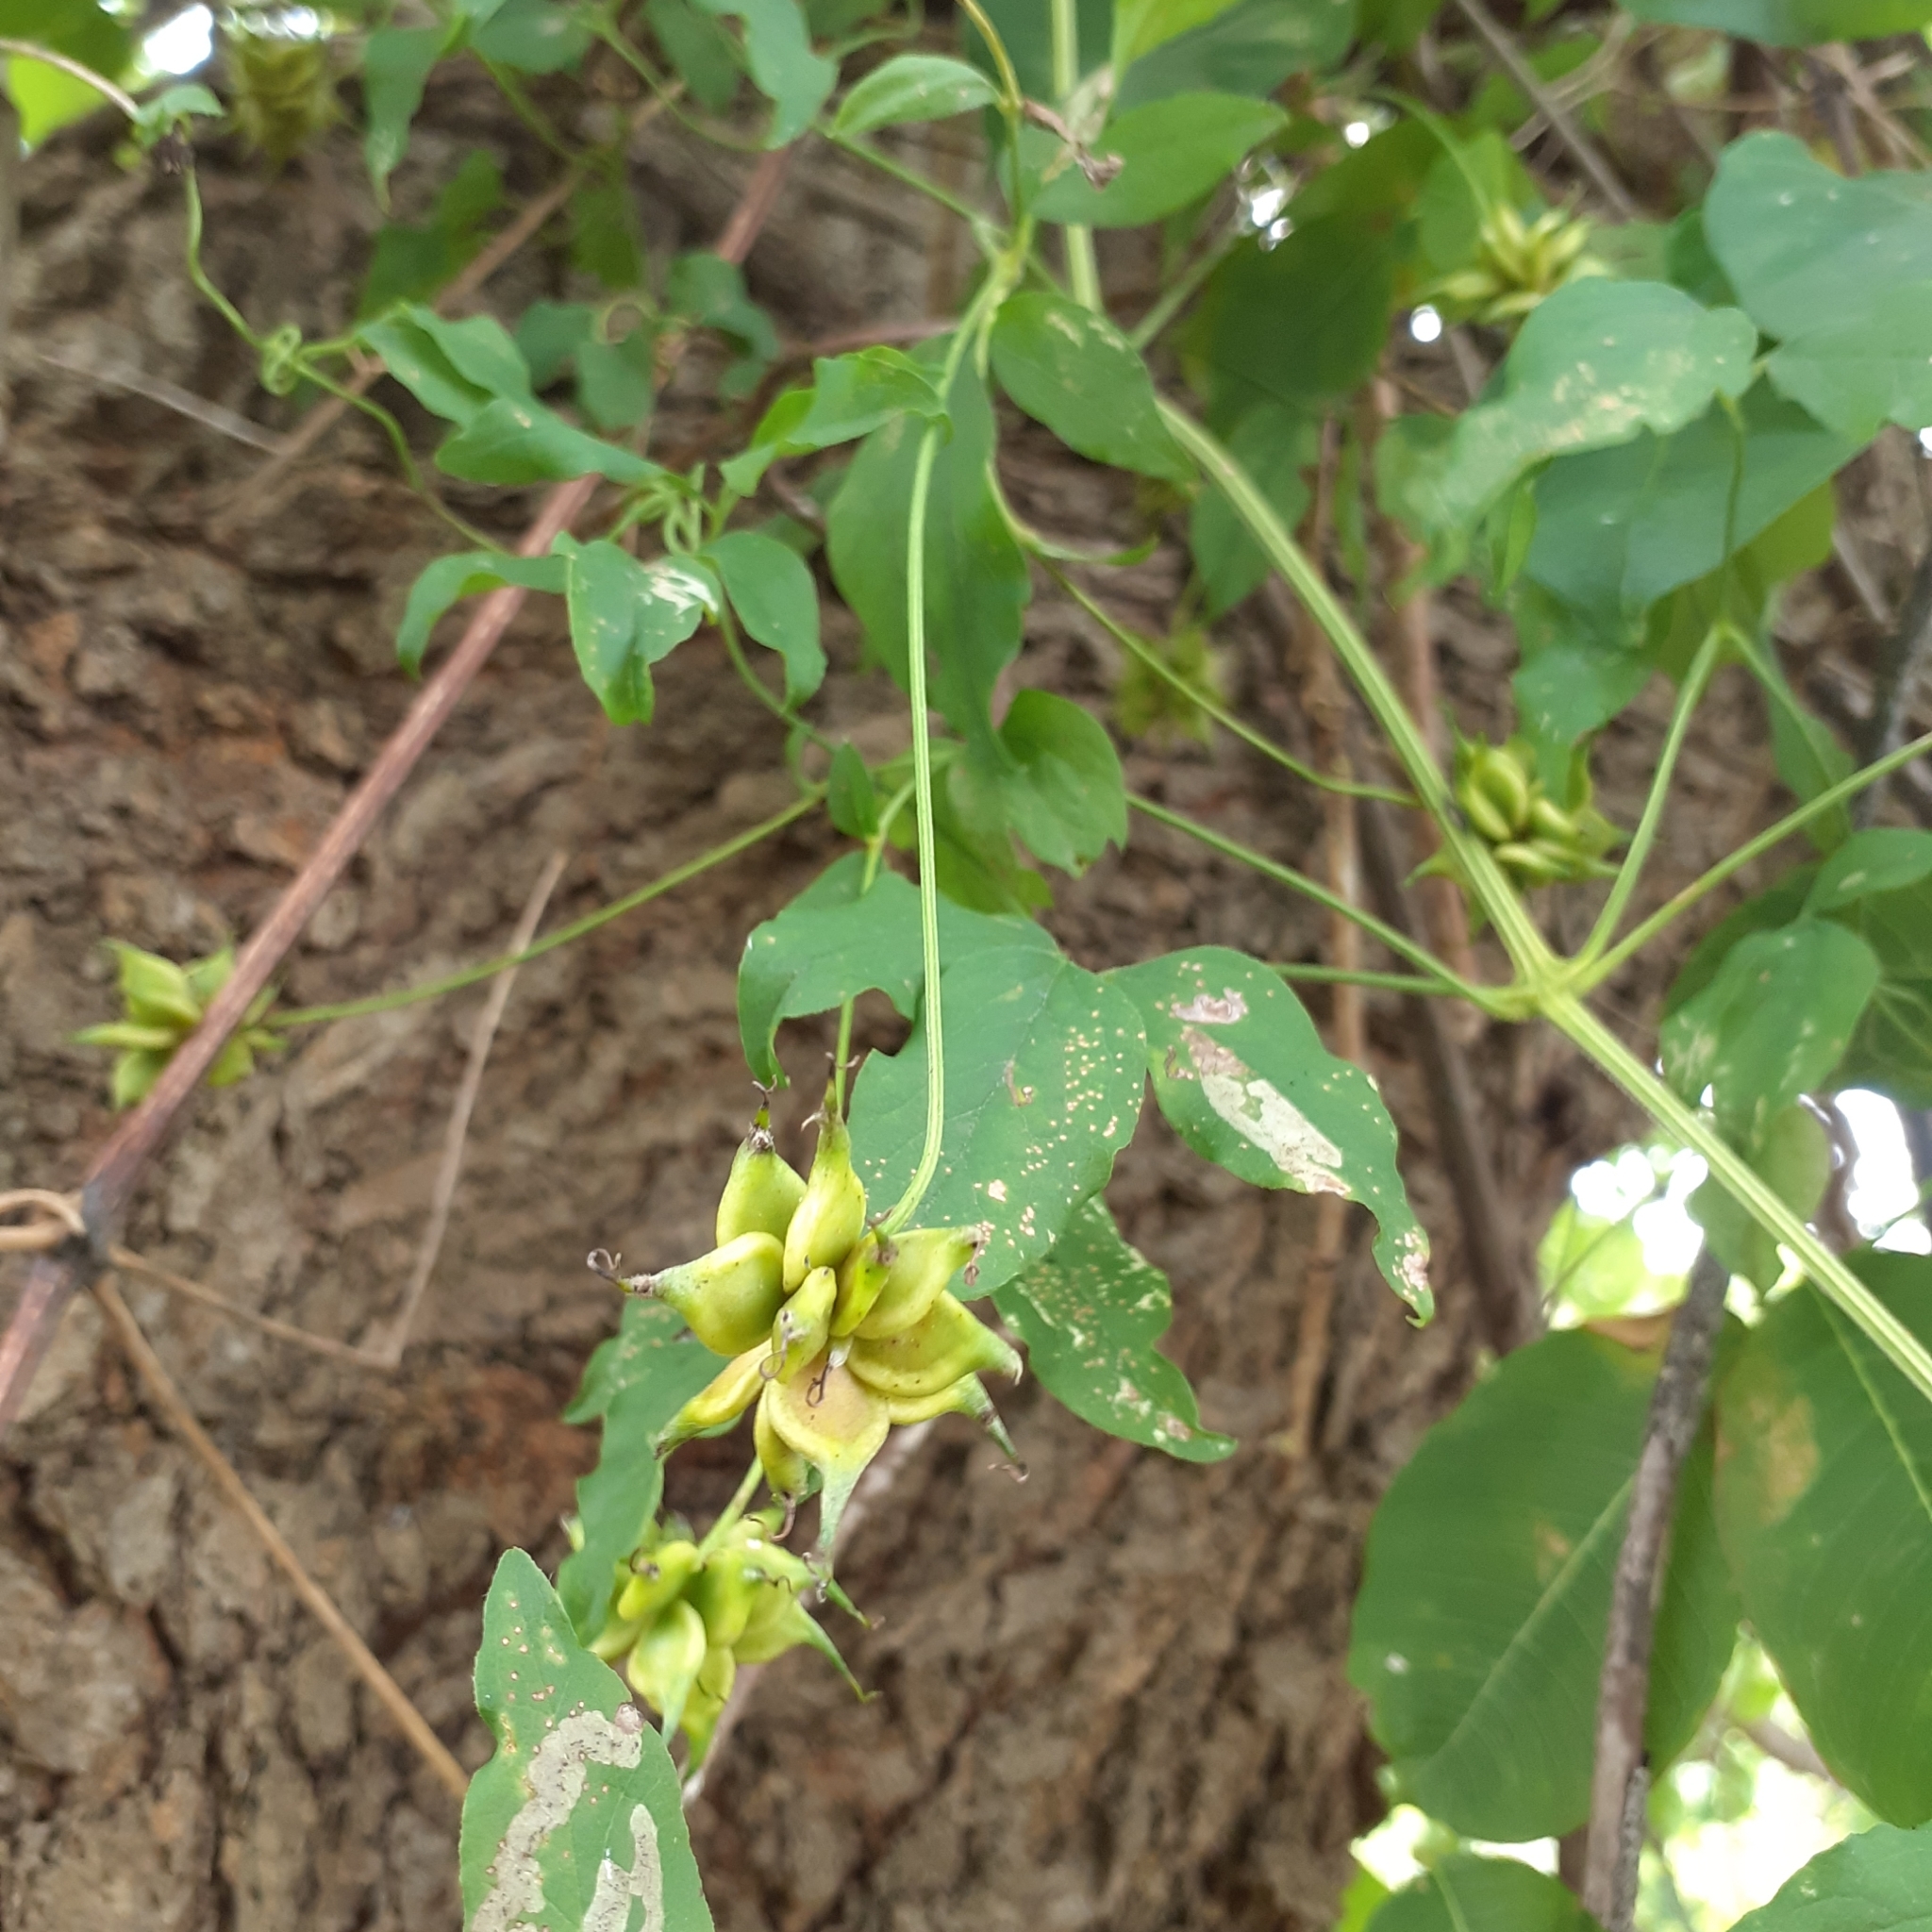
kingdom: Plantae
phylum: Tracheophyta
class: Magnoliopsida
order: Ranunculales
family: Ranunculaceae
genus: Clematis
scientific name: Clematis viticella
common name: Purple clematis
